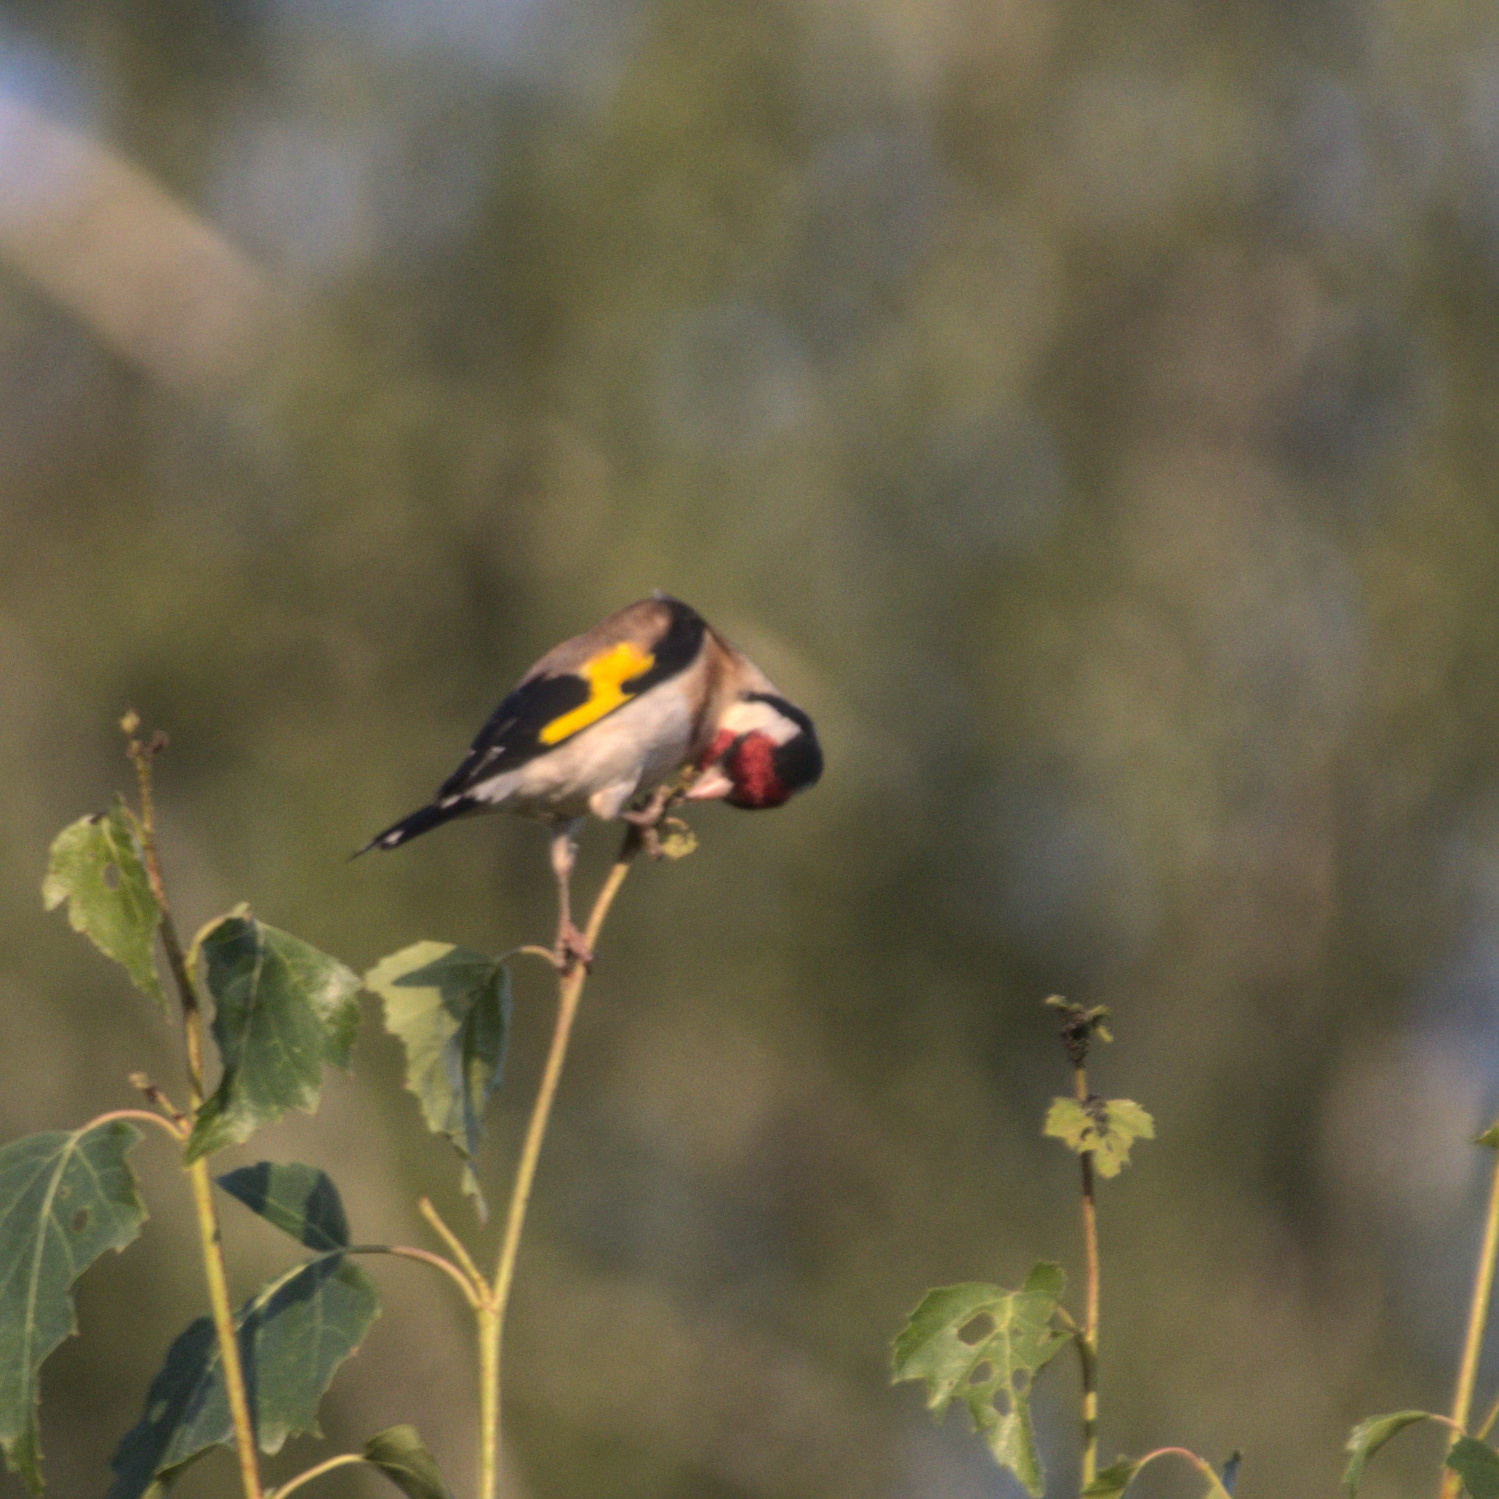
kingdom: Animalia
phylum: Chordata
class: Aves
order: Passeriformes
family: Fringillidae
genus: Carduelis
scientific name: Carduelis carduelis
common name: European goldfinch
